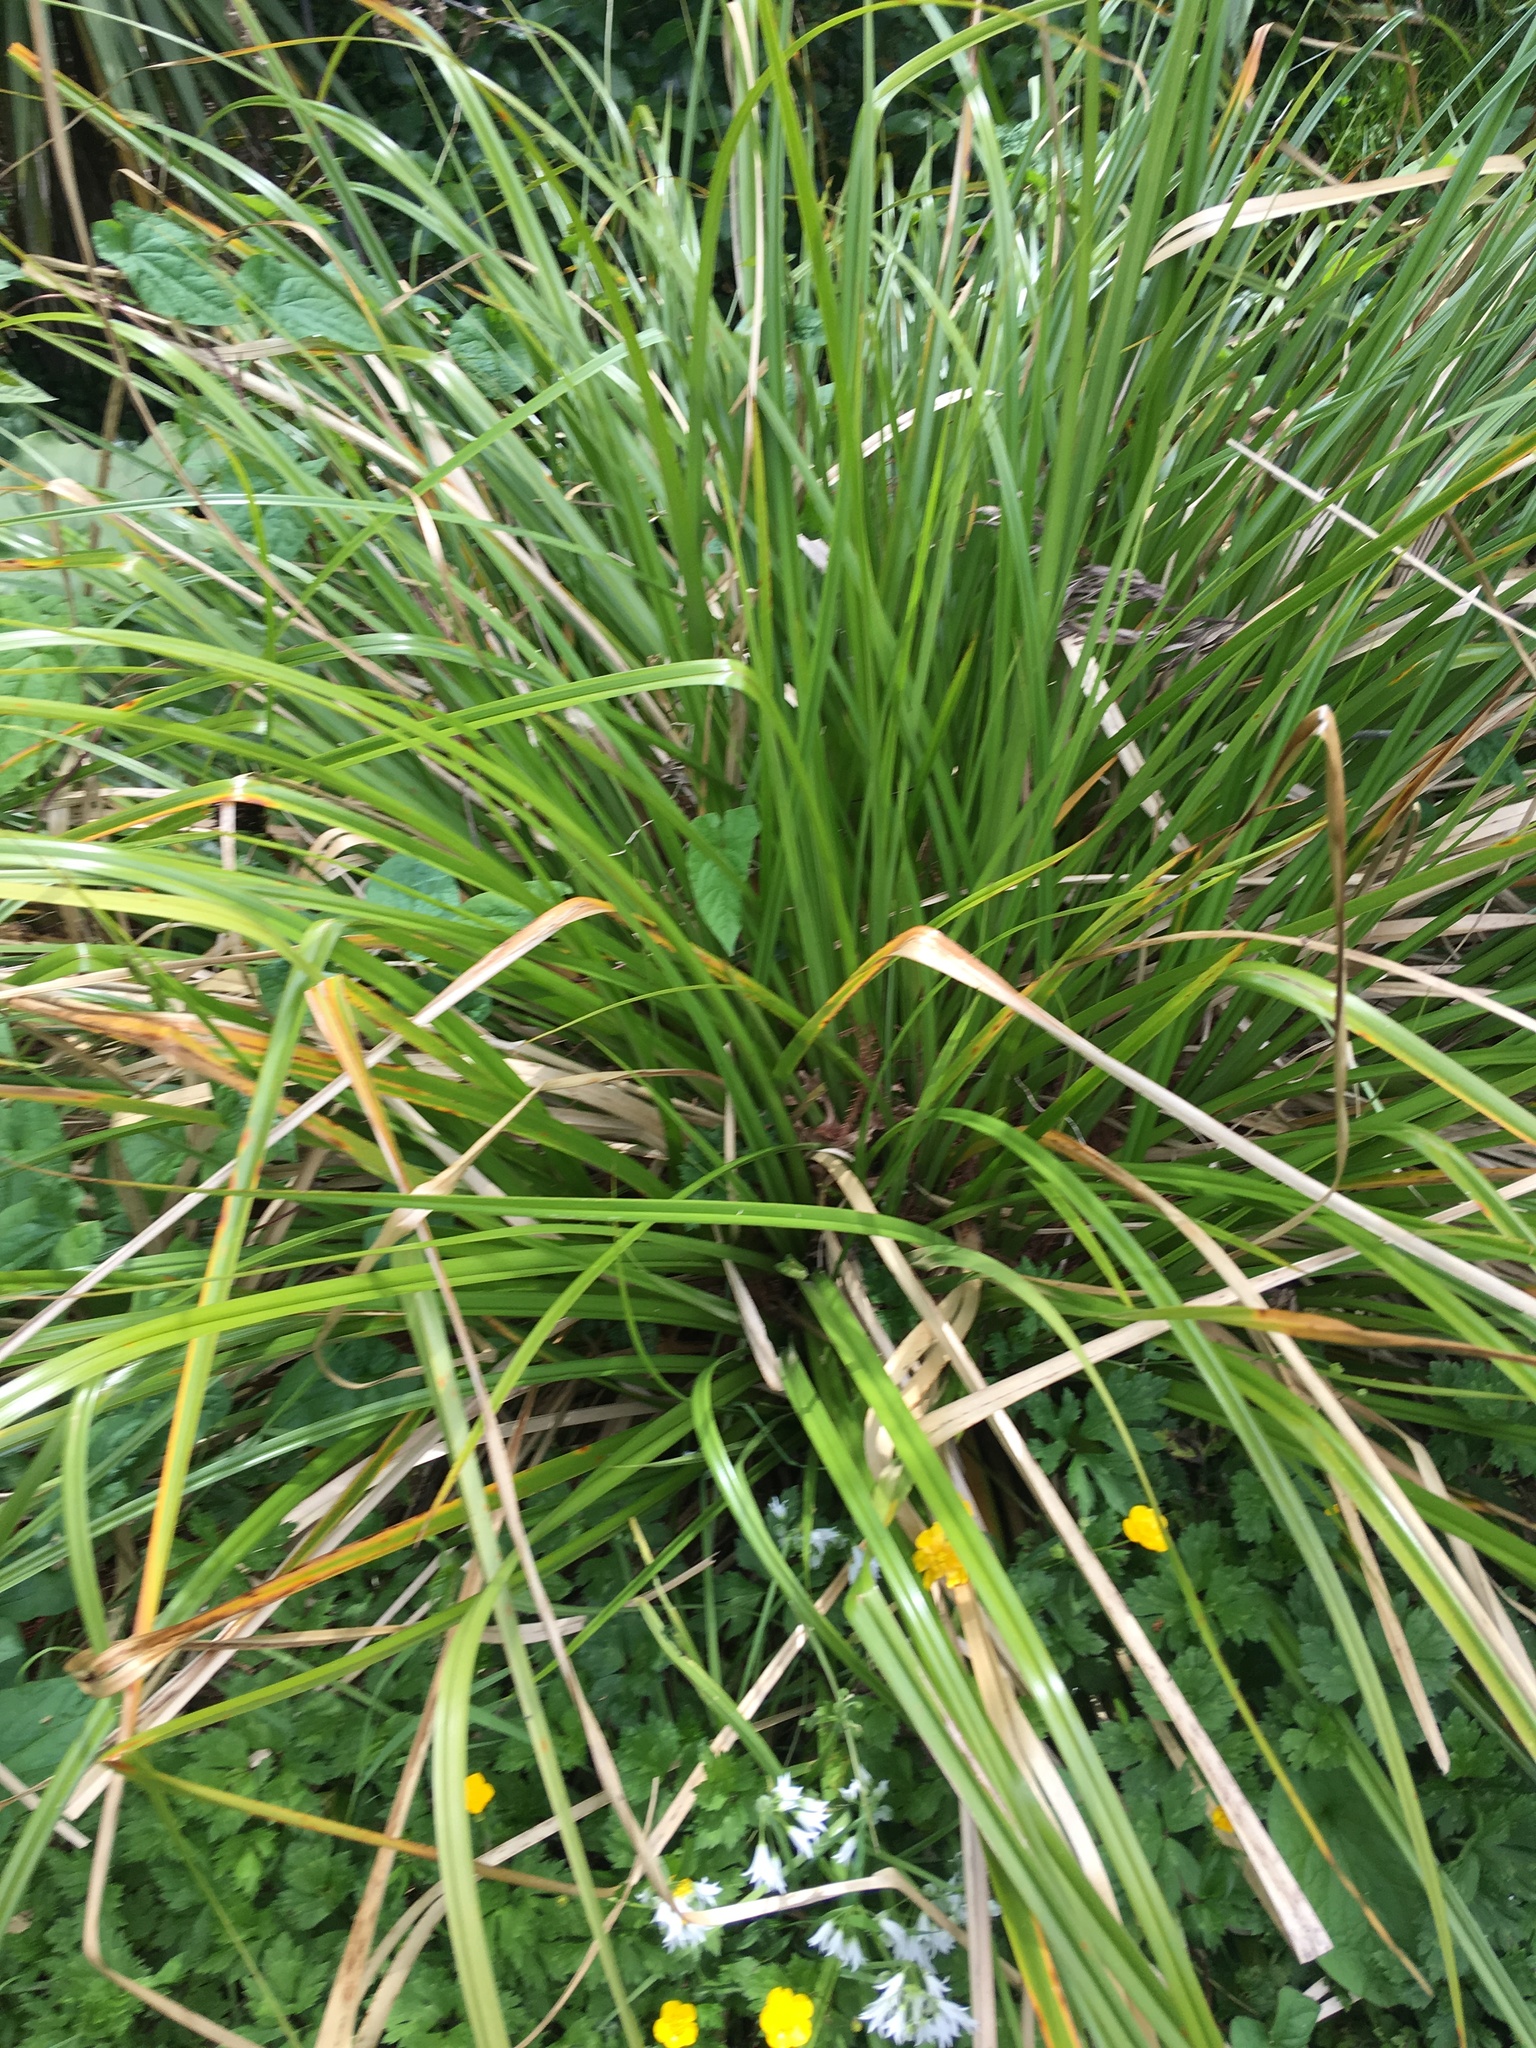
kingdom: Plantae
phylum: Tracheophyta
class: Liliopsida
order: Poales
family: Cyperaceae
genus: Cyperus
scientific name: Cyperus ustulatus
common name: Giant umbrella-sedge
